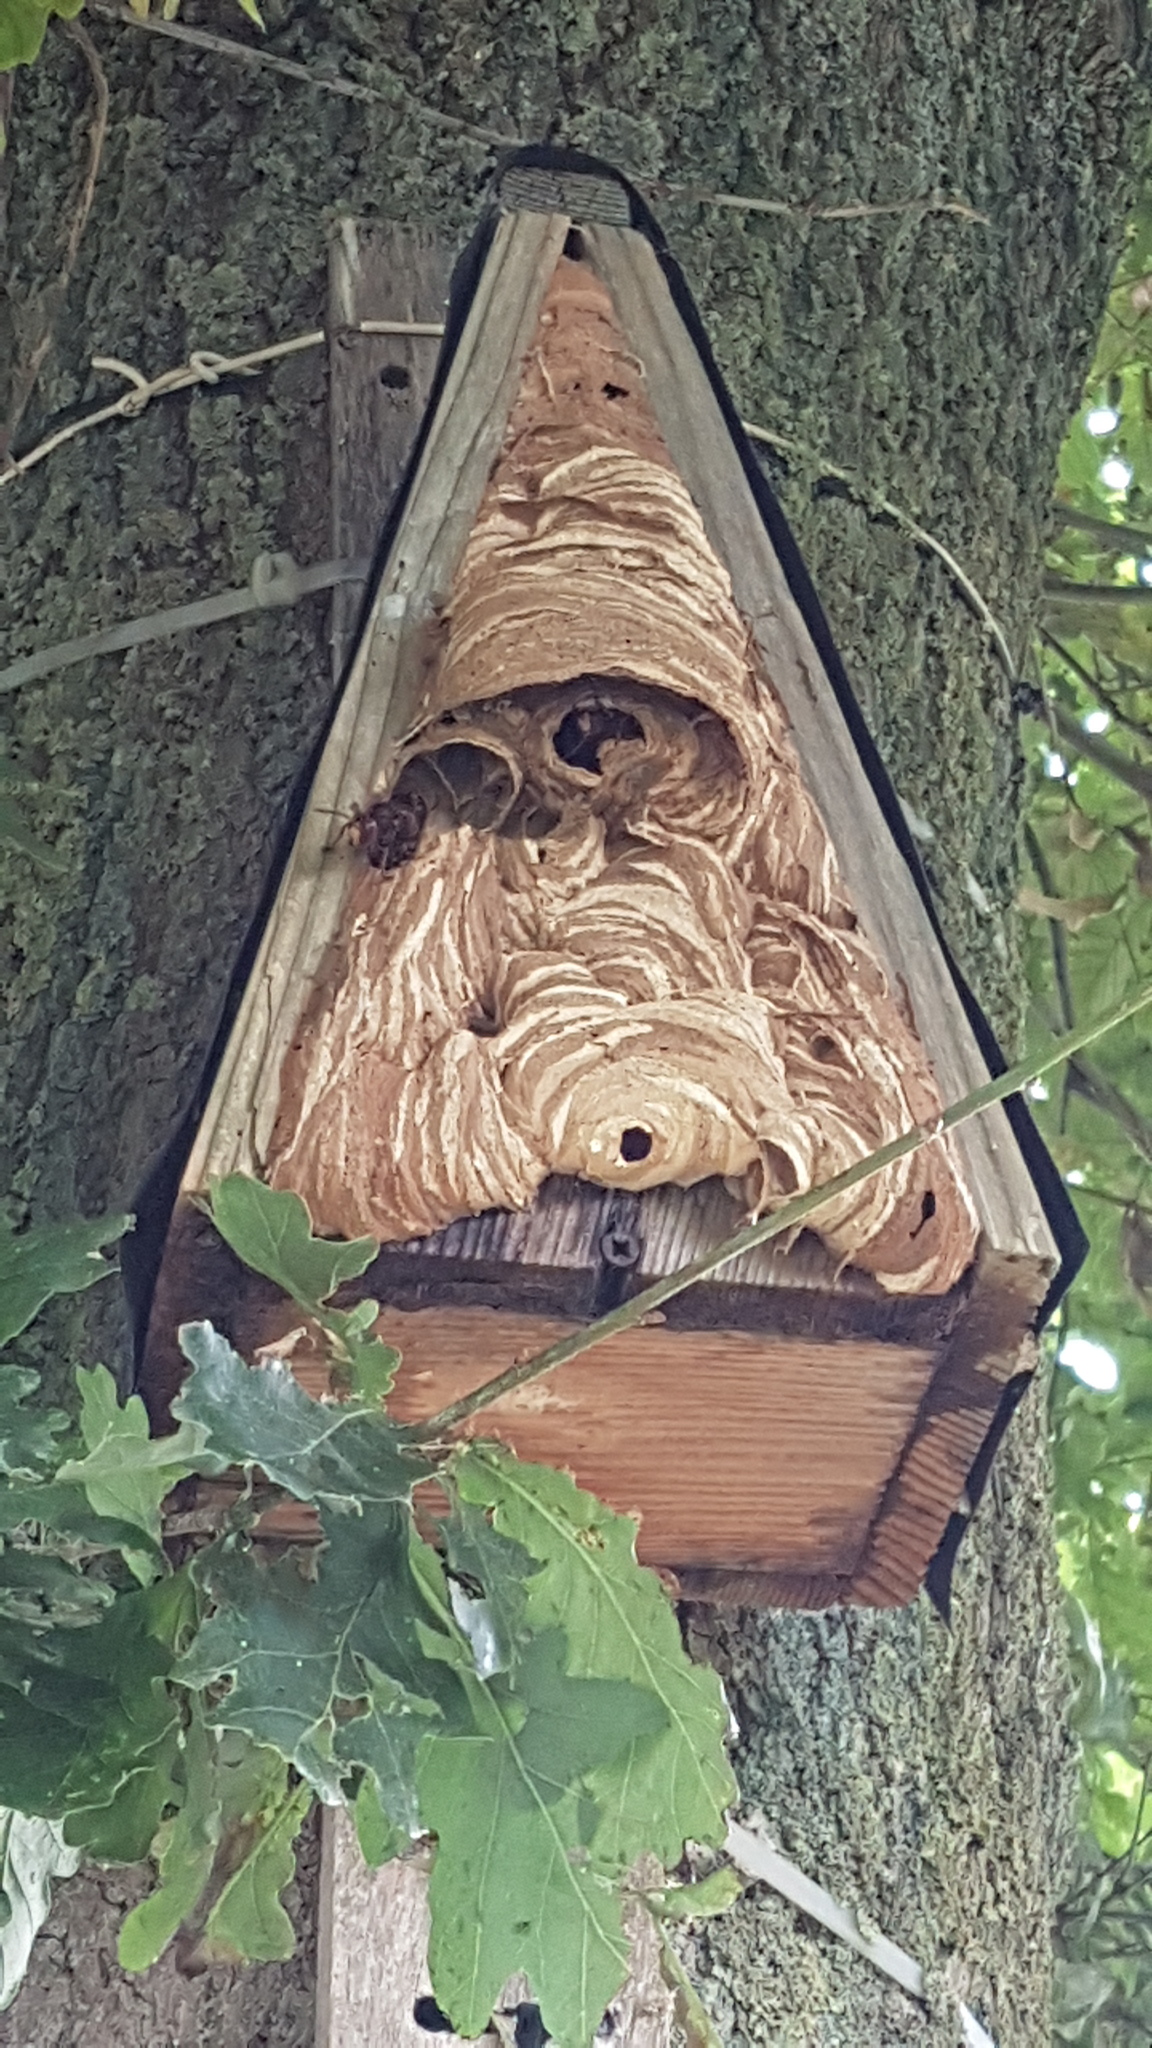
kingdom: Animalia
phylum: Arthropoda
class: Insecta
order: Hymenoptera
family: Vespidae
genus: Vespa
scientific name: Vespa crabro
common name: Hornet
